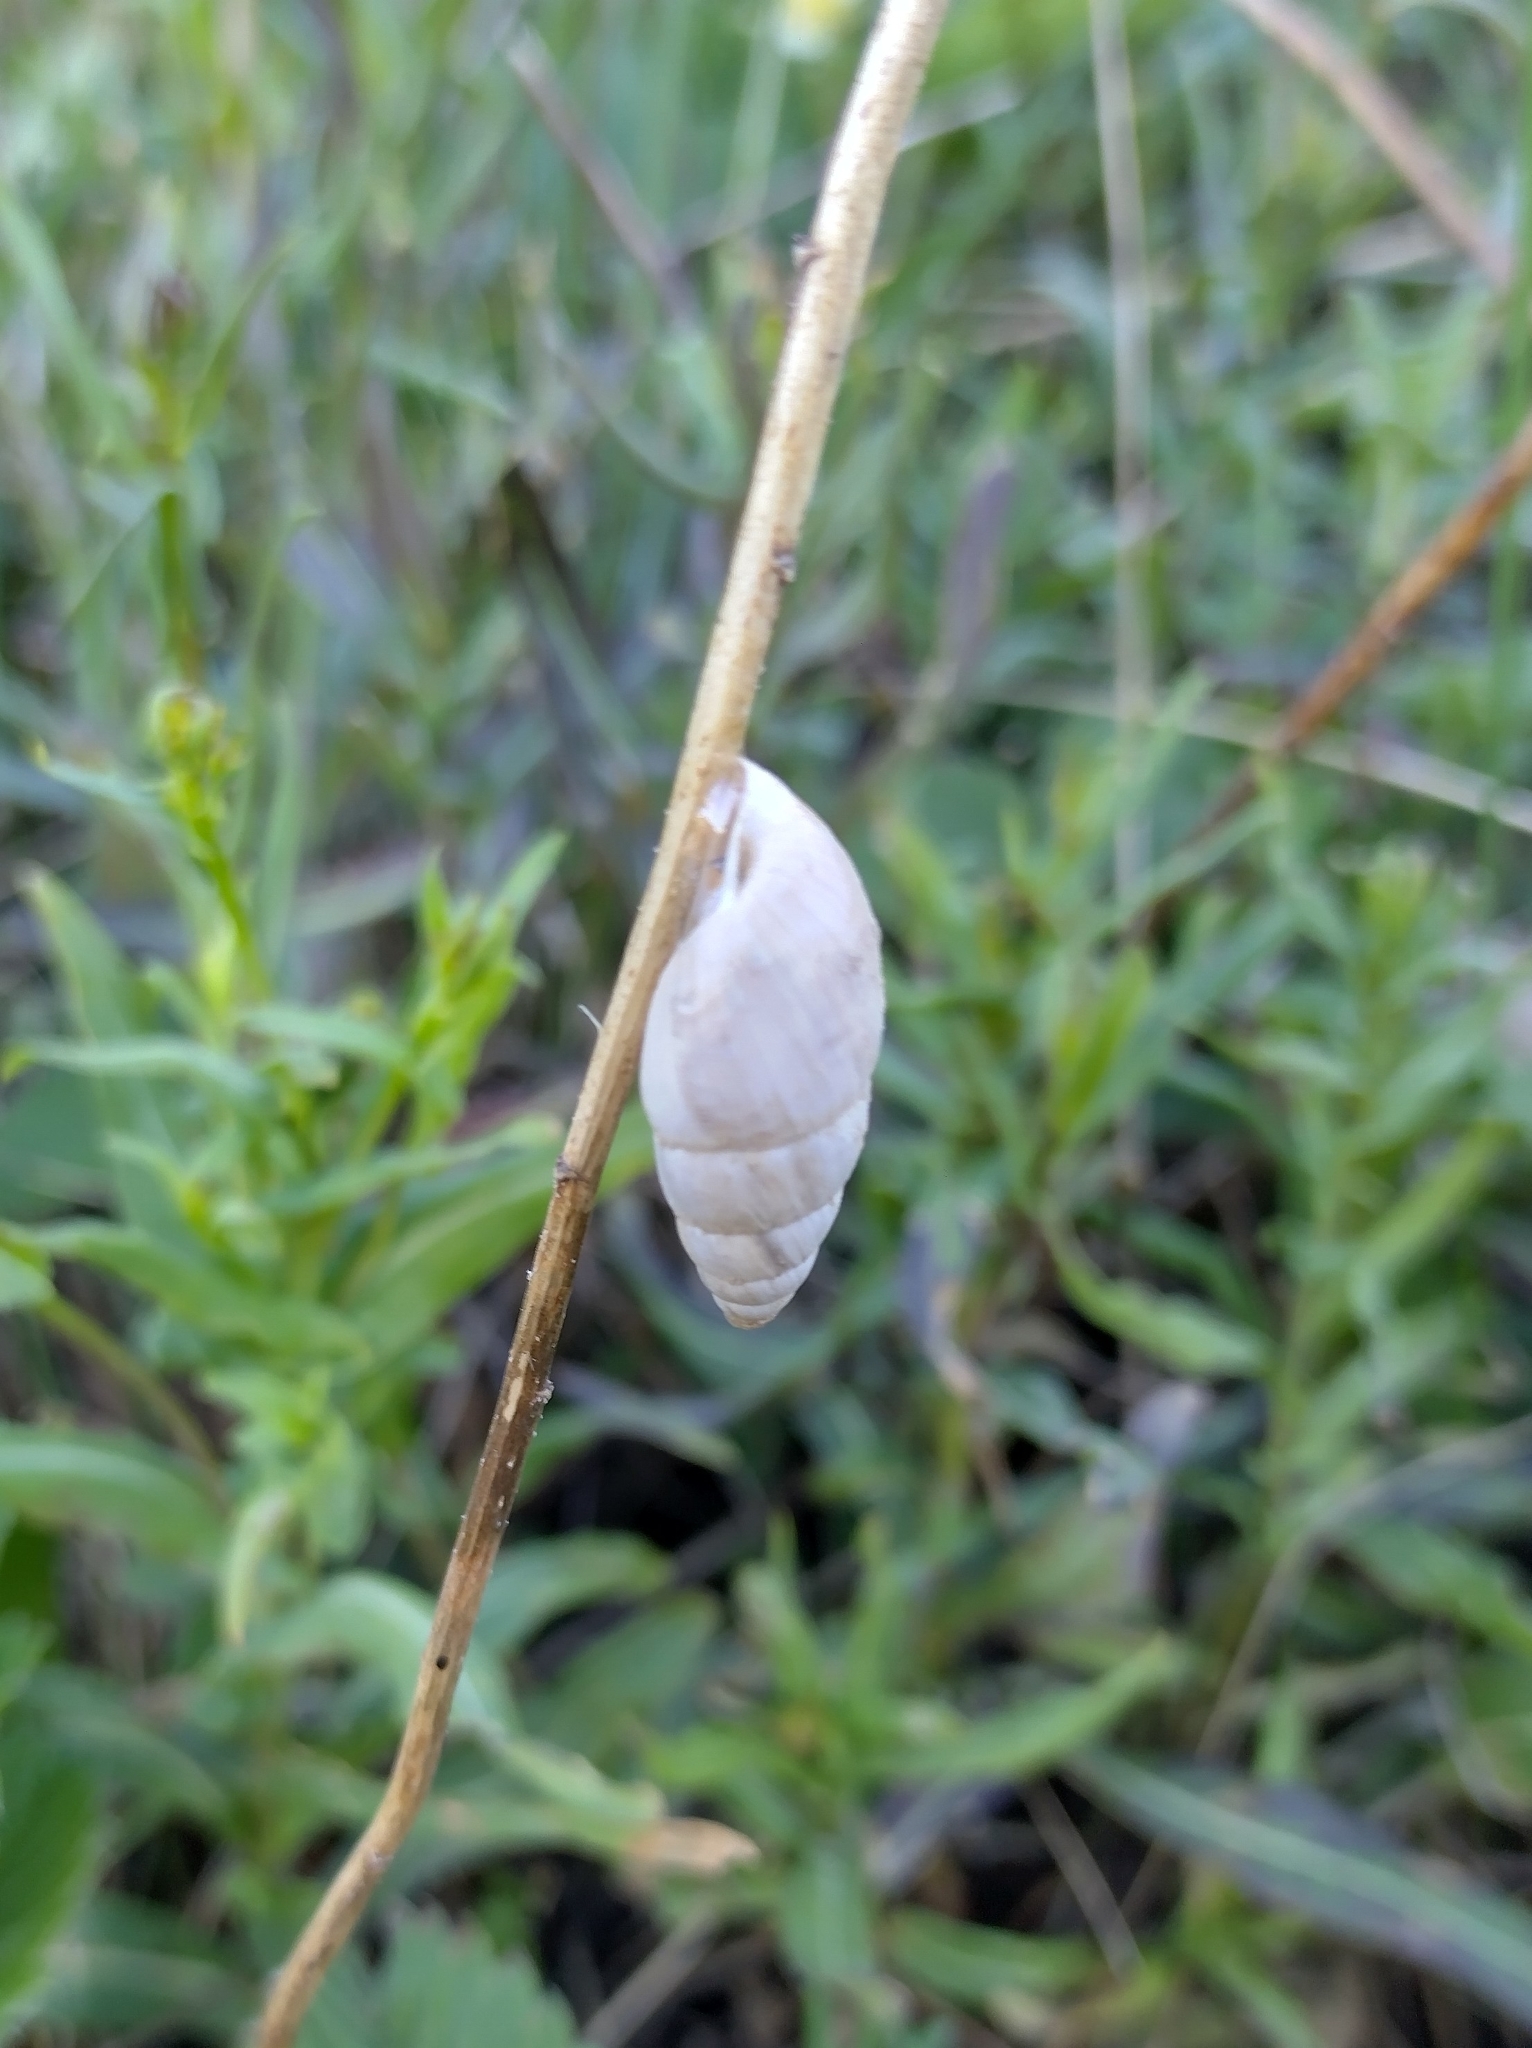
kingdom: Animalia
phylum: Mollusca
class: Gastropoda
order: Stylommatophora
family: Enidae
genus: Zebrina
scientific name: Zebrina detrita
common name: Large bulin
